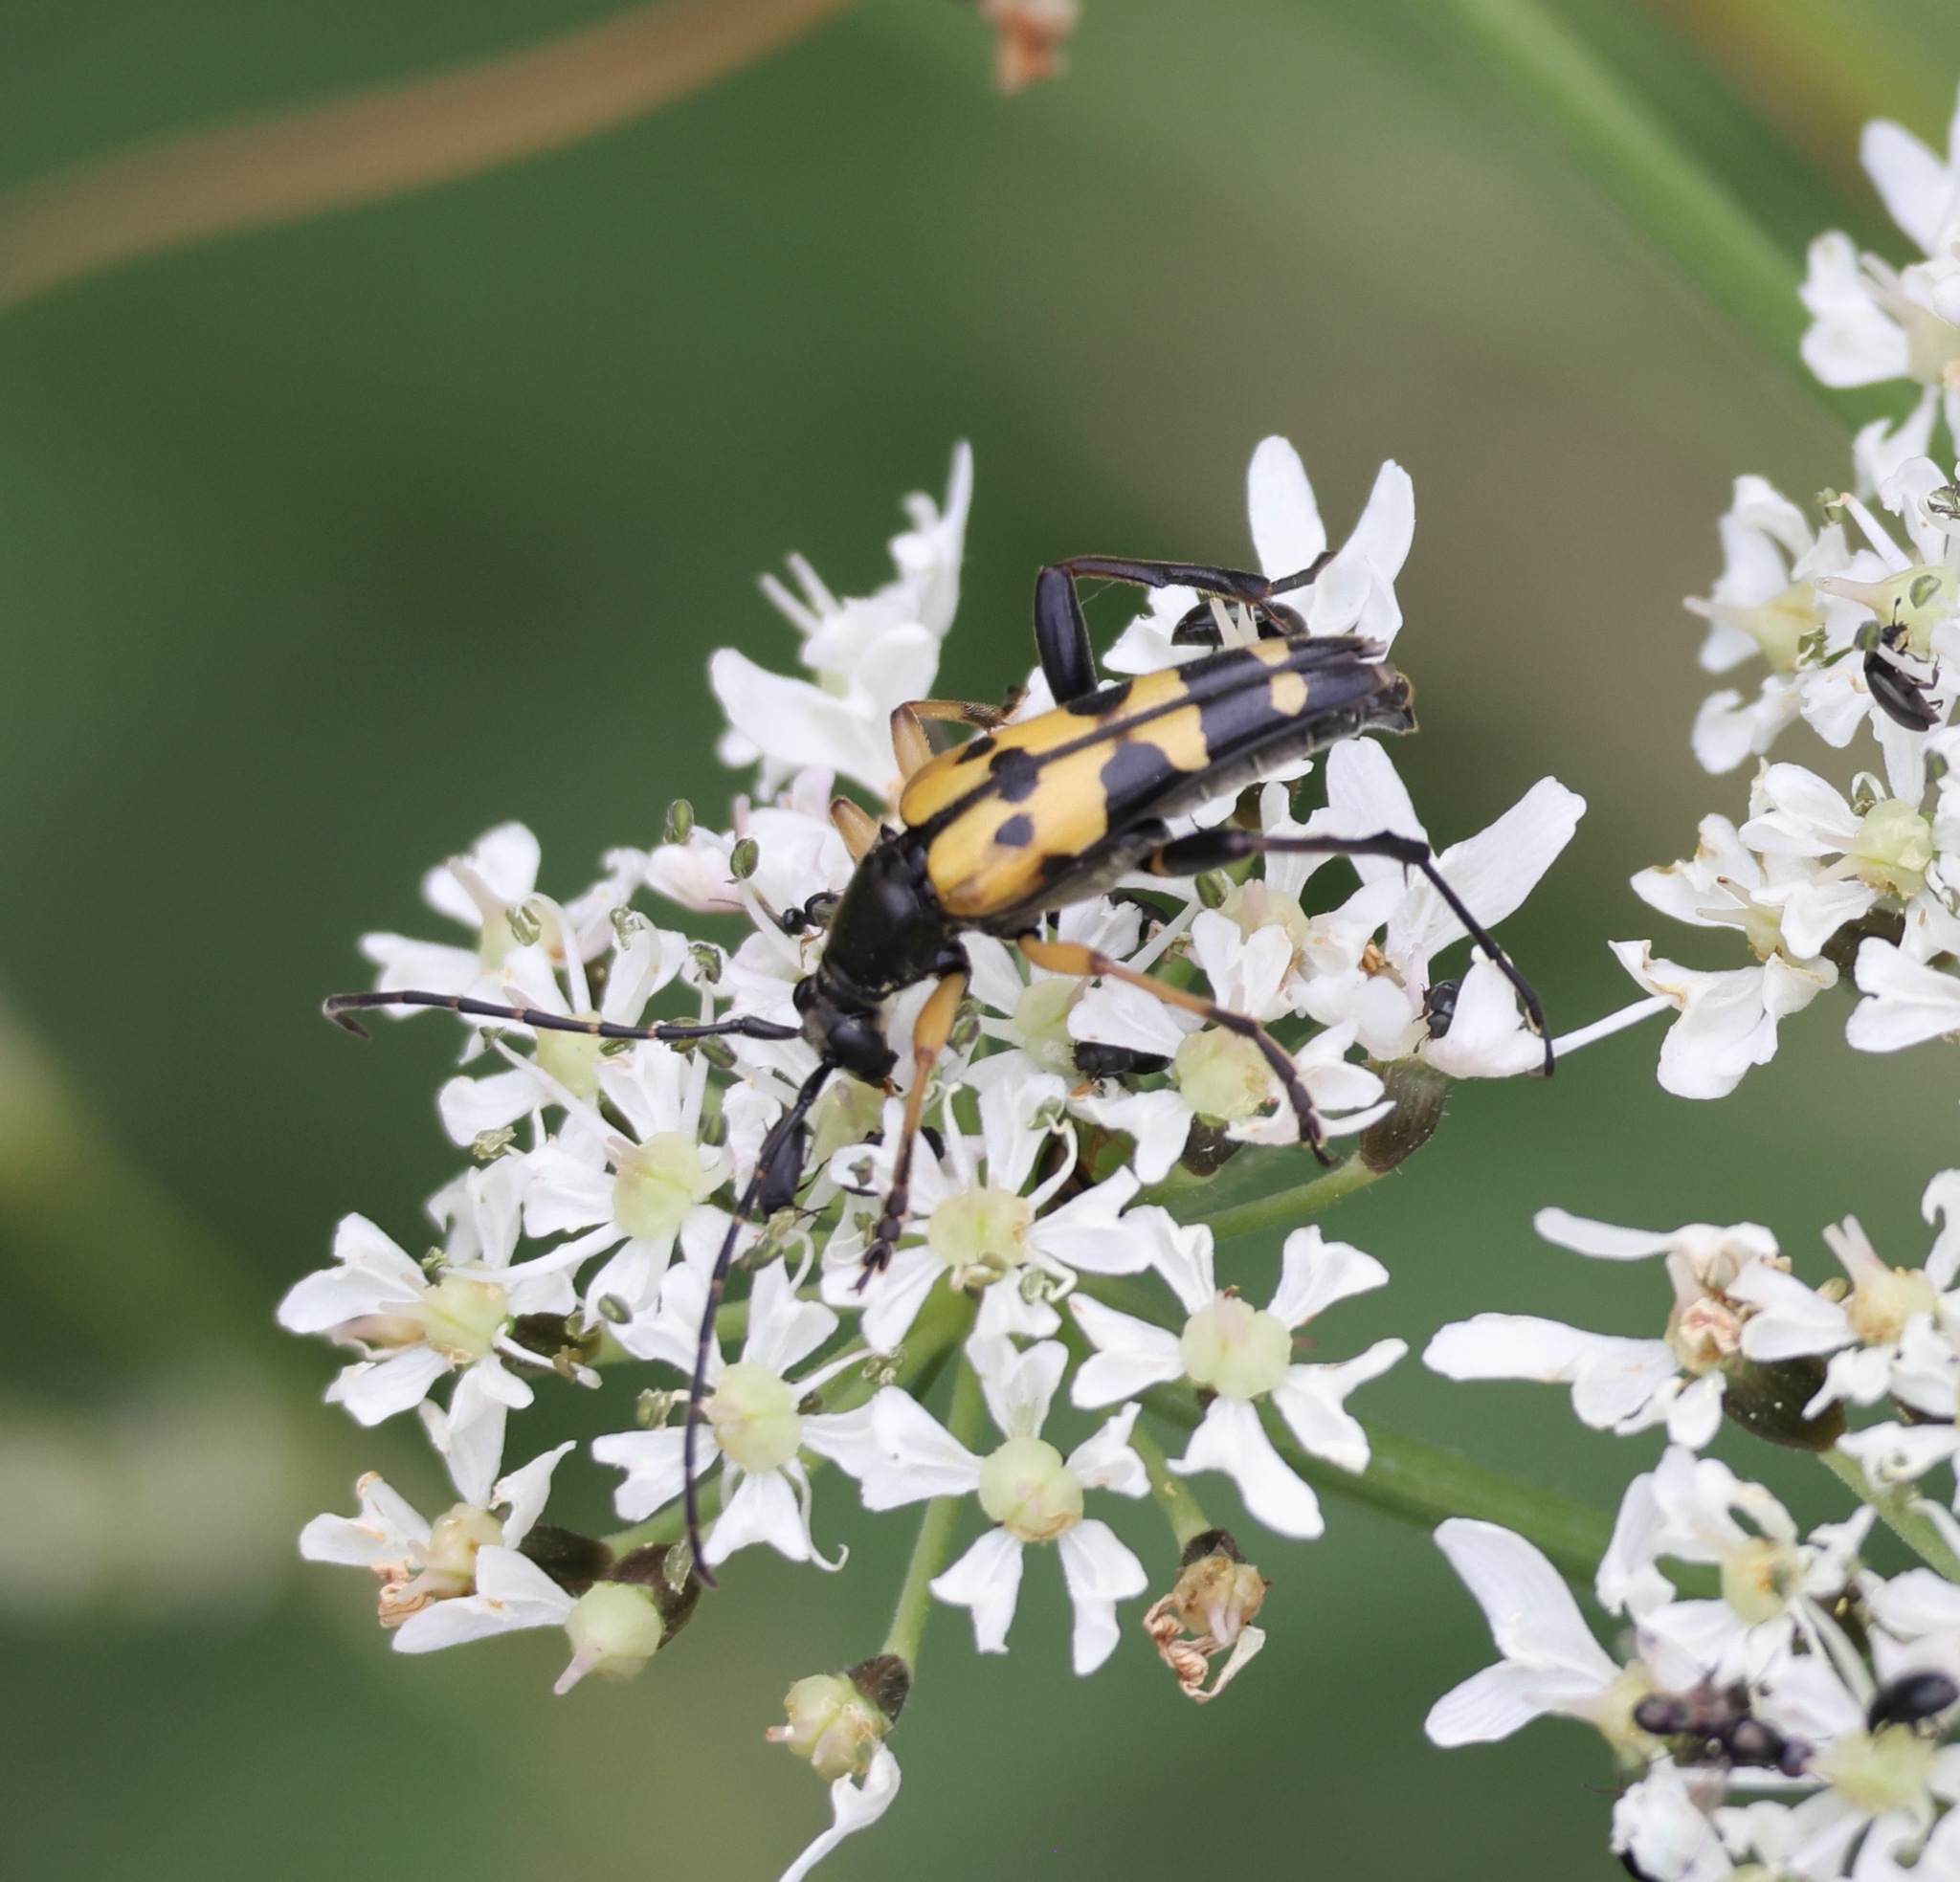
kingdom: Animalia
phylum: Arthropoda
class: Insecta
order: Coleoptera
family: Cerambycidae
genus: Rutpela
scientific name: Rutpela maculata
